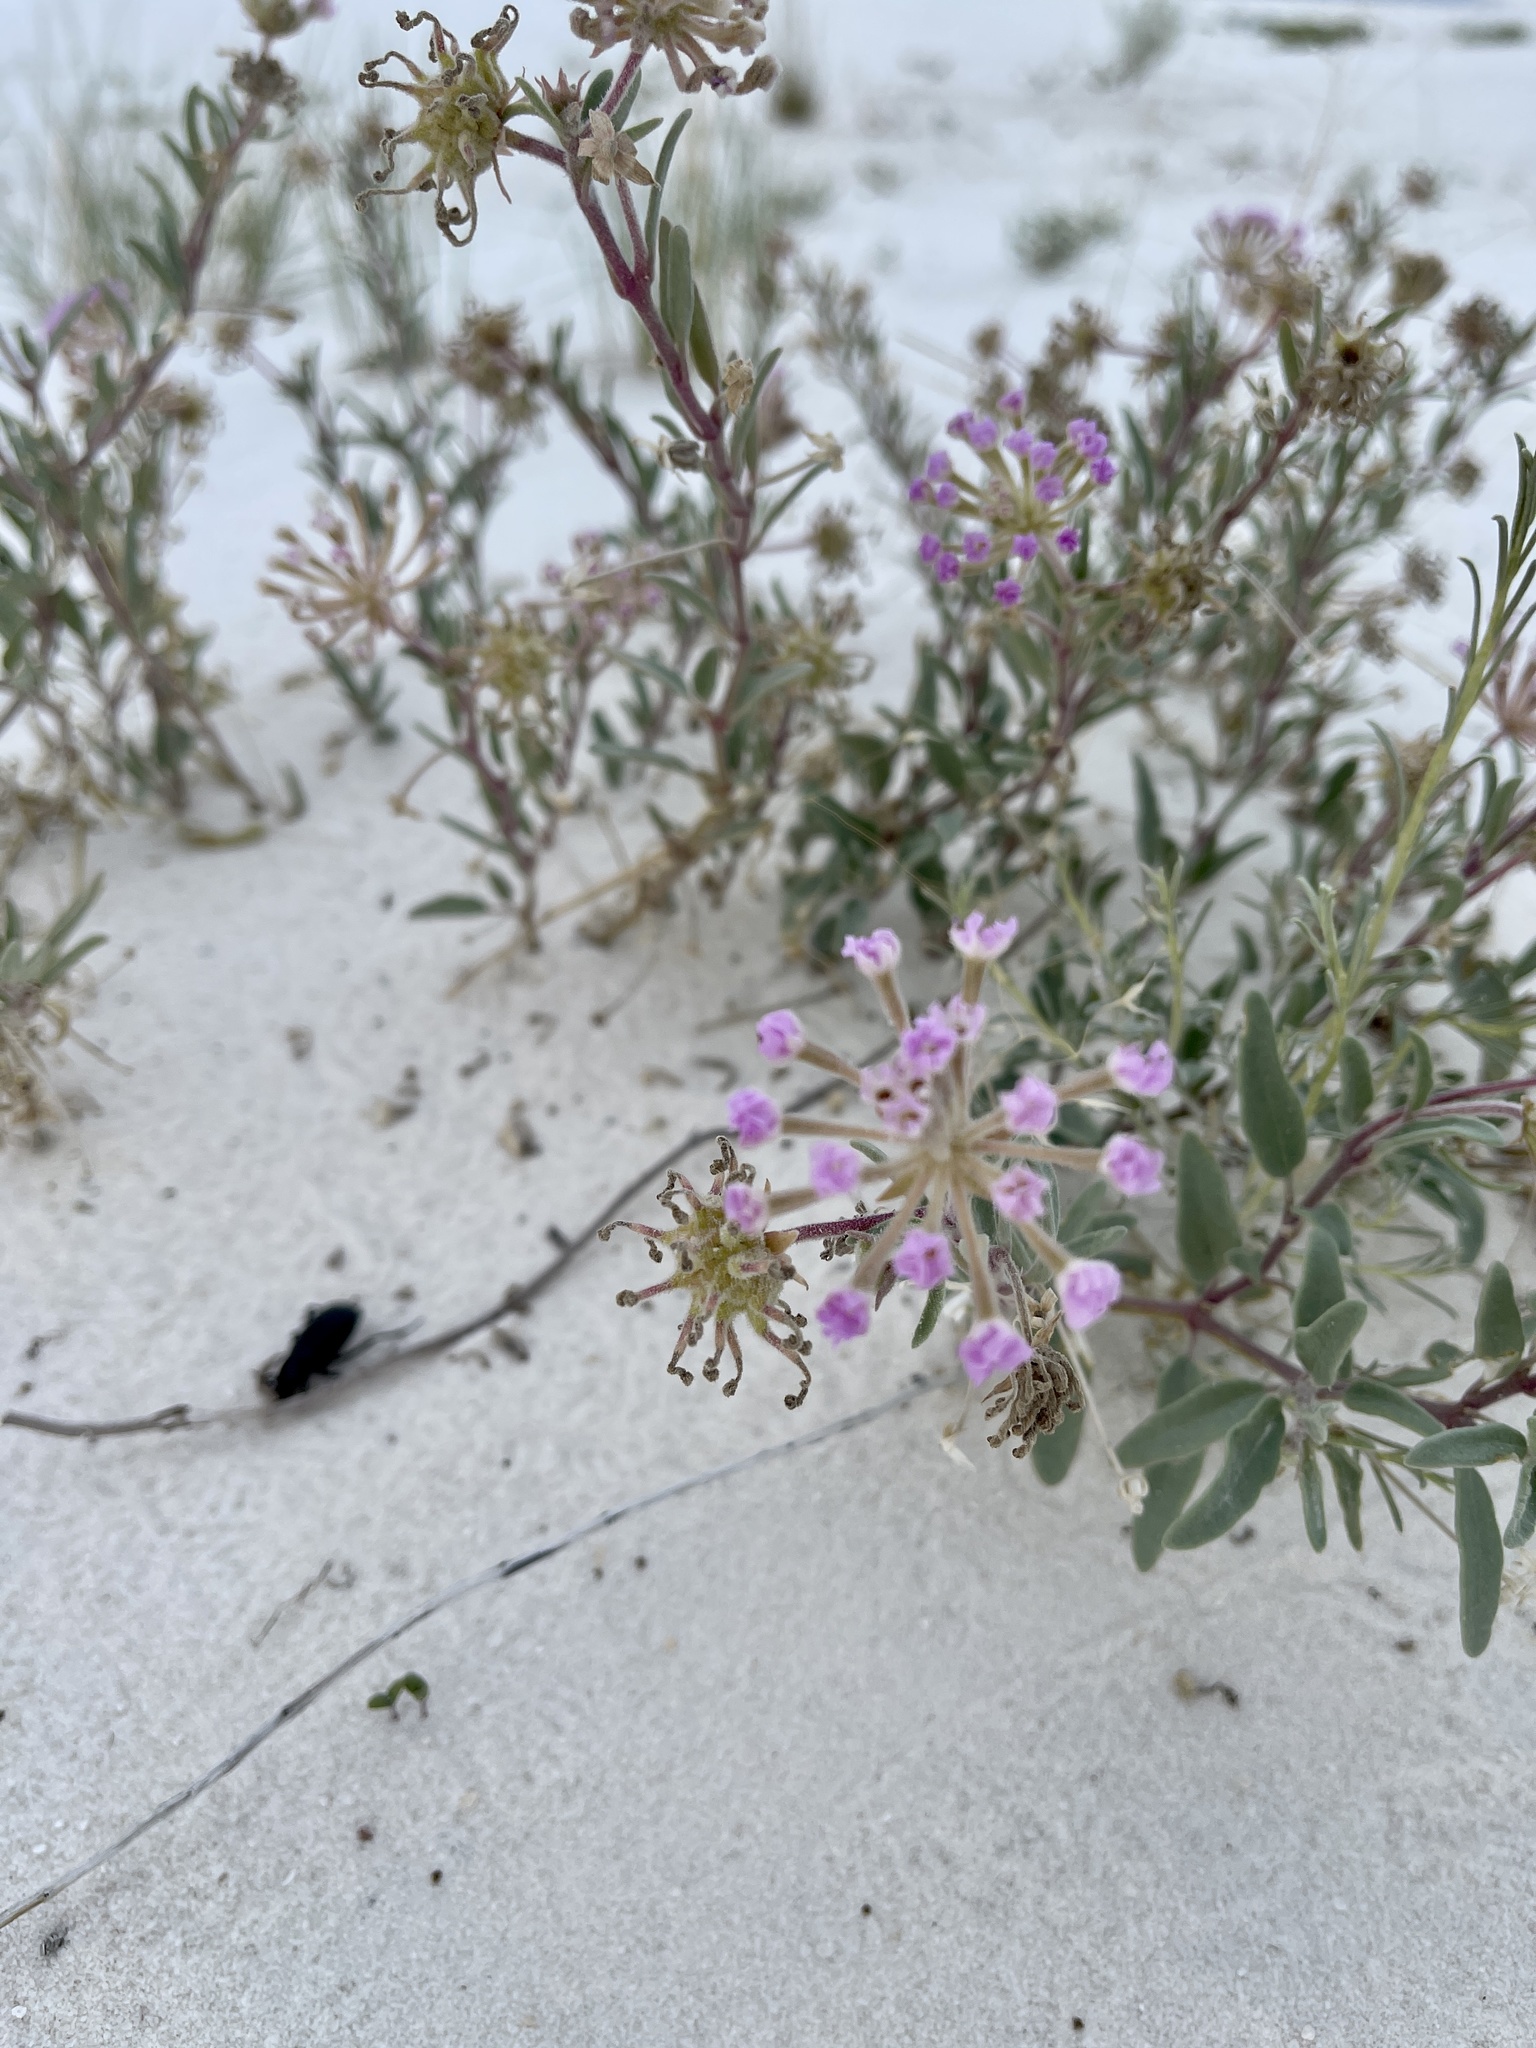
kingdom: Plantae
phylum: Tracheophyta
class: Magnoliopsida
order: Caryophyllales
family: Nyctaginaceae
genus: Abronia
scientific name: Abronia angustifolia
